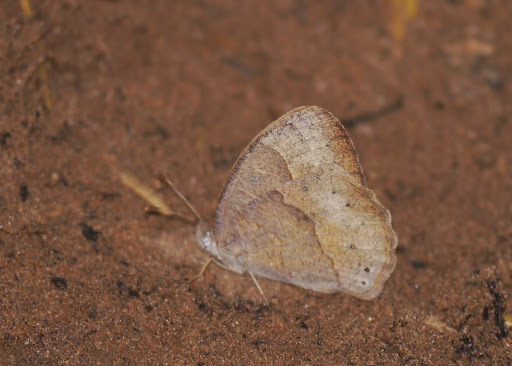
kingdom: Animalia
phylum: Arthropoda
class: Insecta
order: Lepidoptera
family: Nymphalidae
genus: Mycalesis
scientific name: Mycalesis anynana
